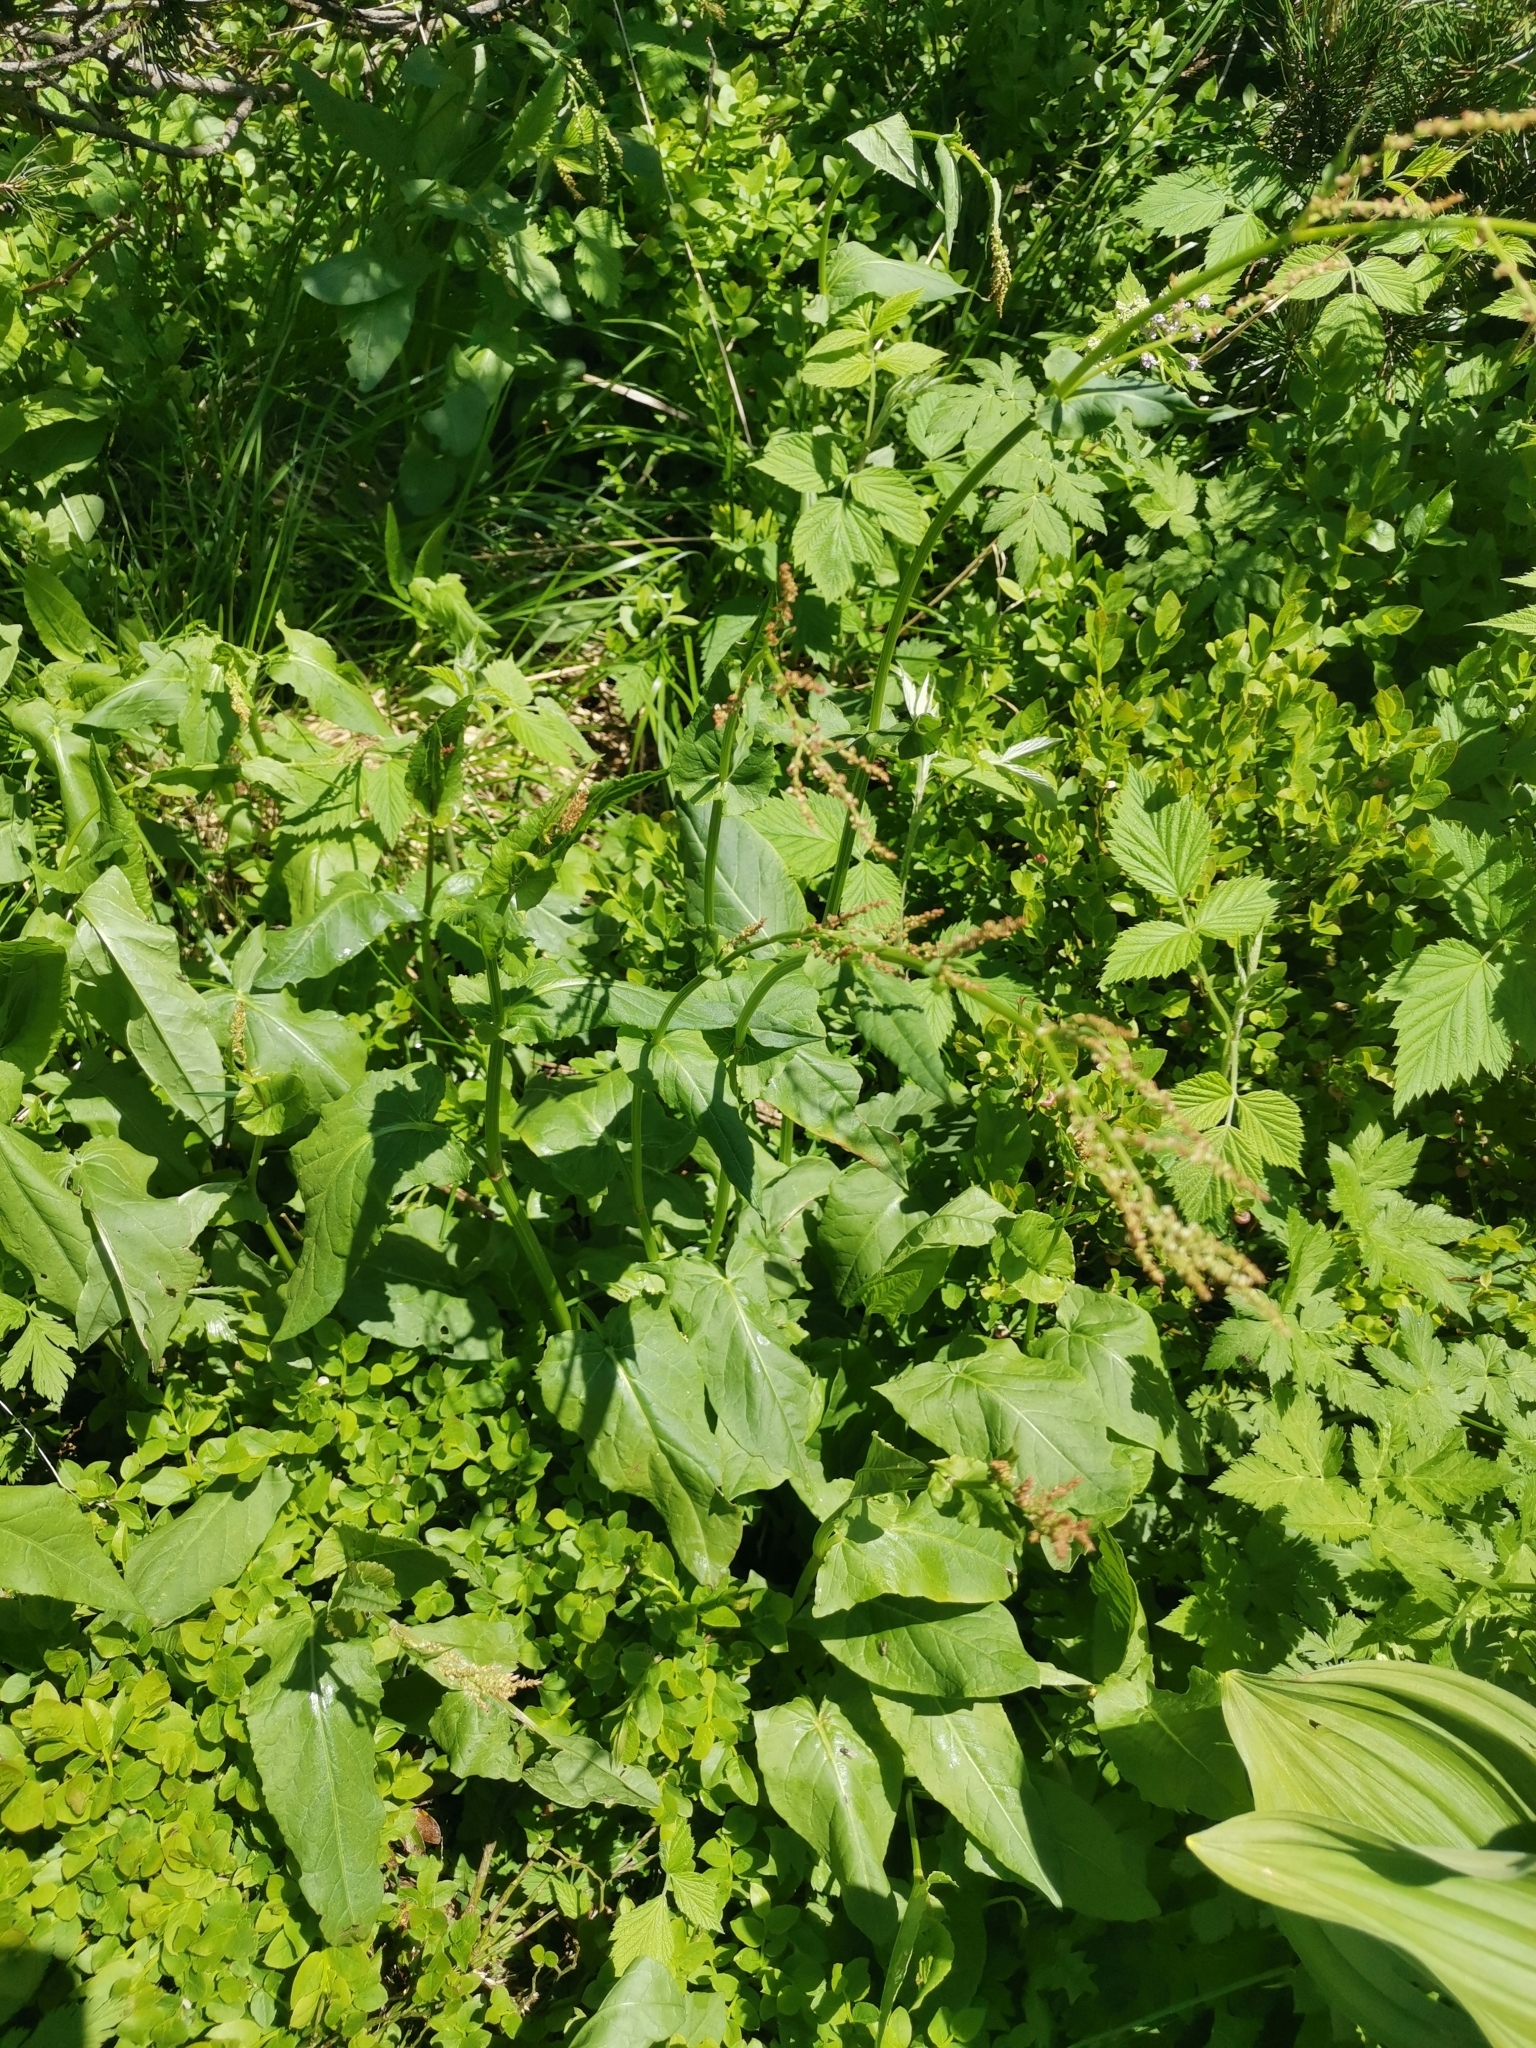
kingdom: Plantae
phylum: Tracheophyta
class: Magnoliopsida
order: Caryophyllales
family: Polygonaceae
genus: Rumex
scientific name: Rumex arifolius
